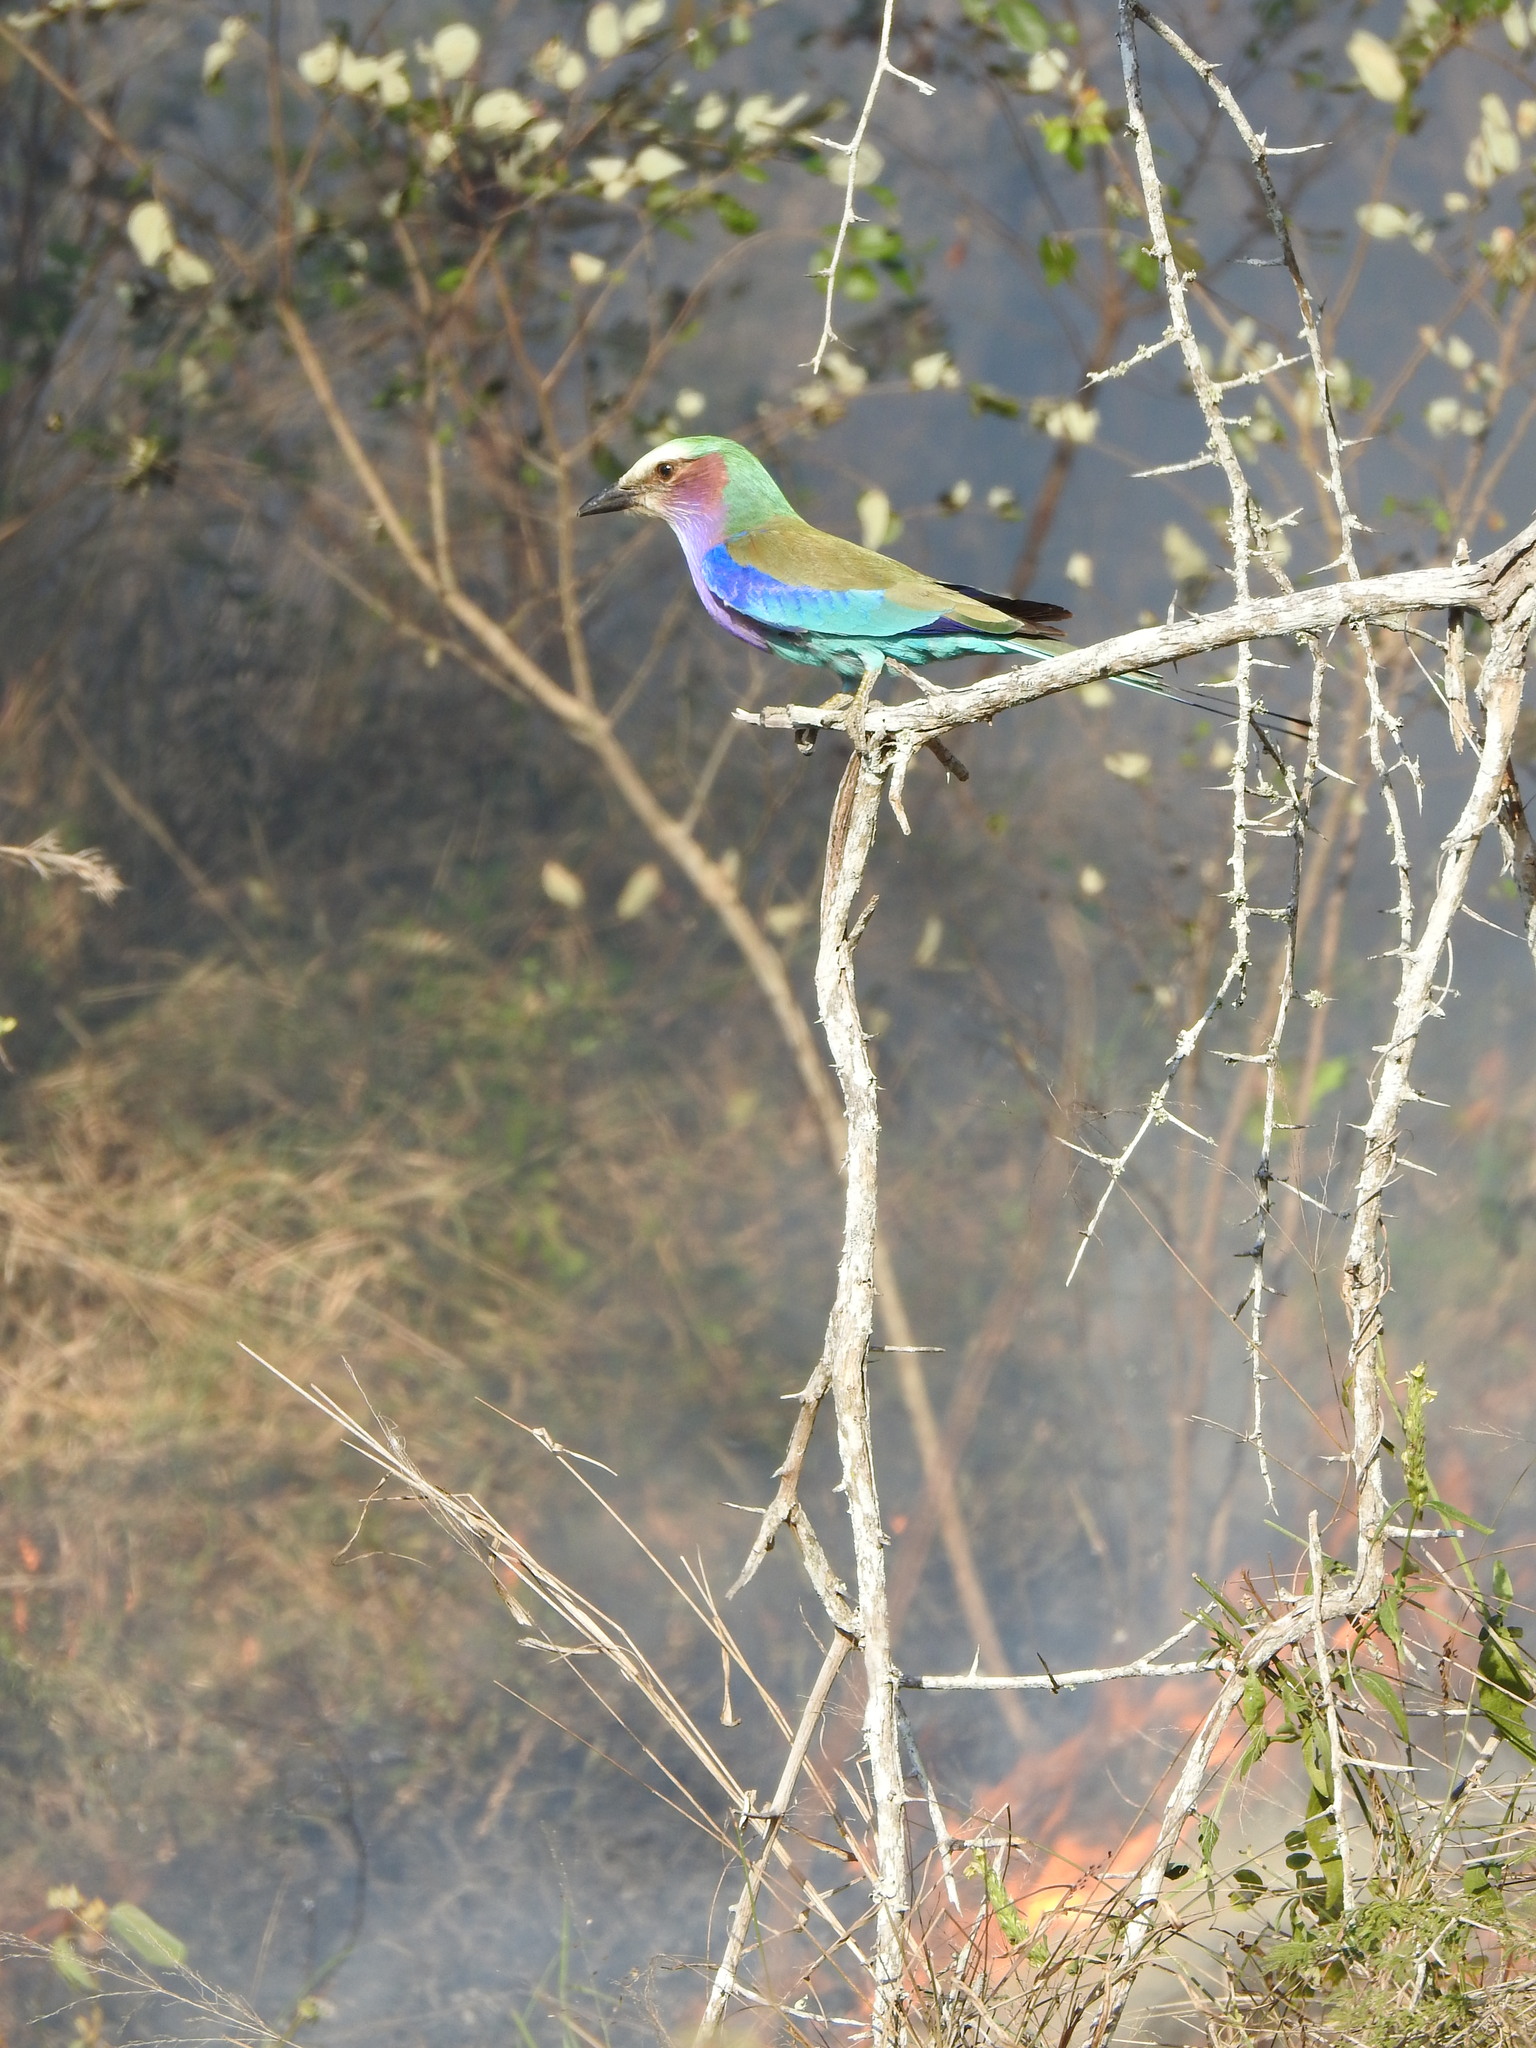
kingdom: Animalia
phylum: Chordata
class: Aves
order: Coraciiformes
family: Coraciidae
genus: Coracias
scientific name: Coracias caudatus
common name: Lilac-breasted roller
